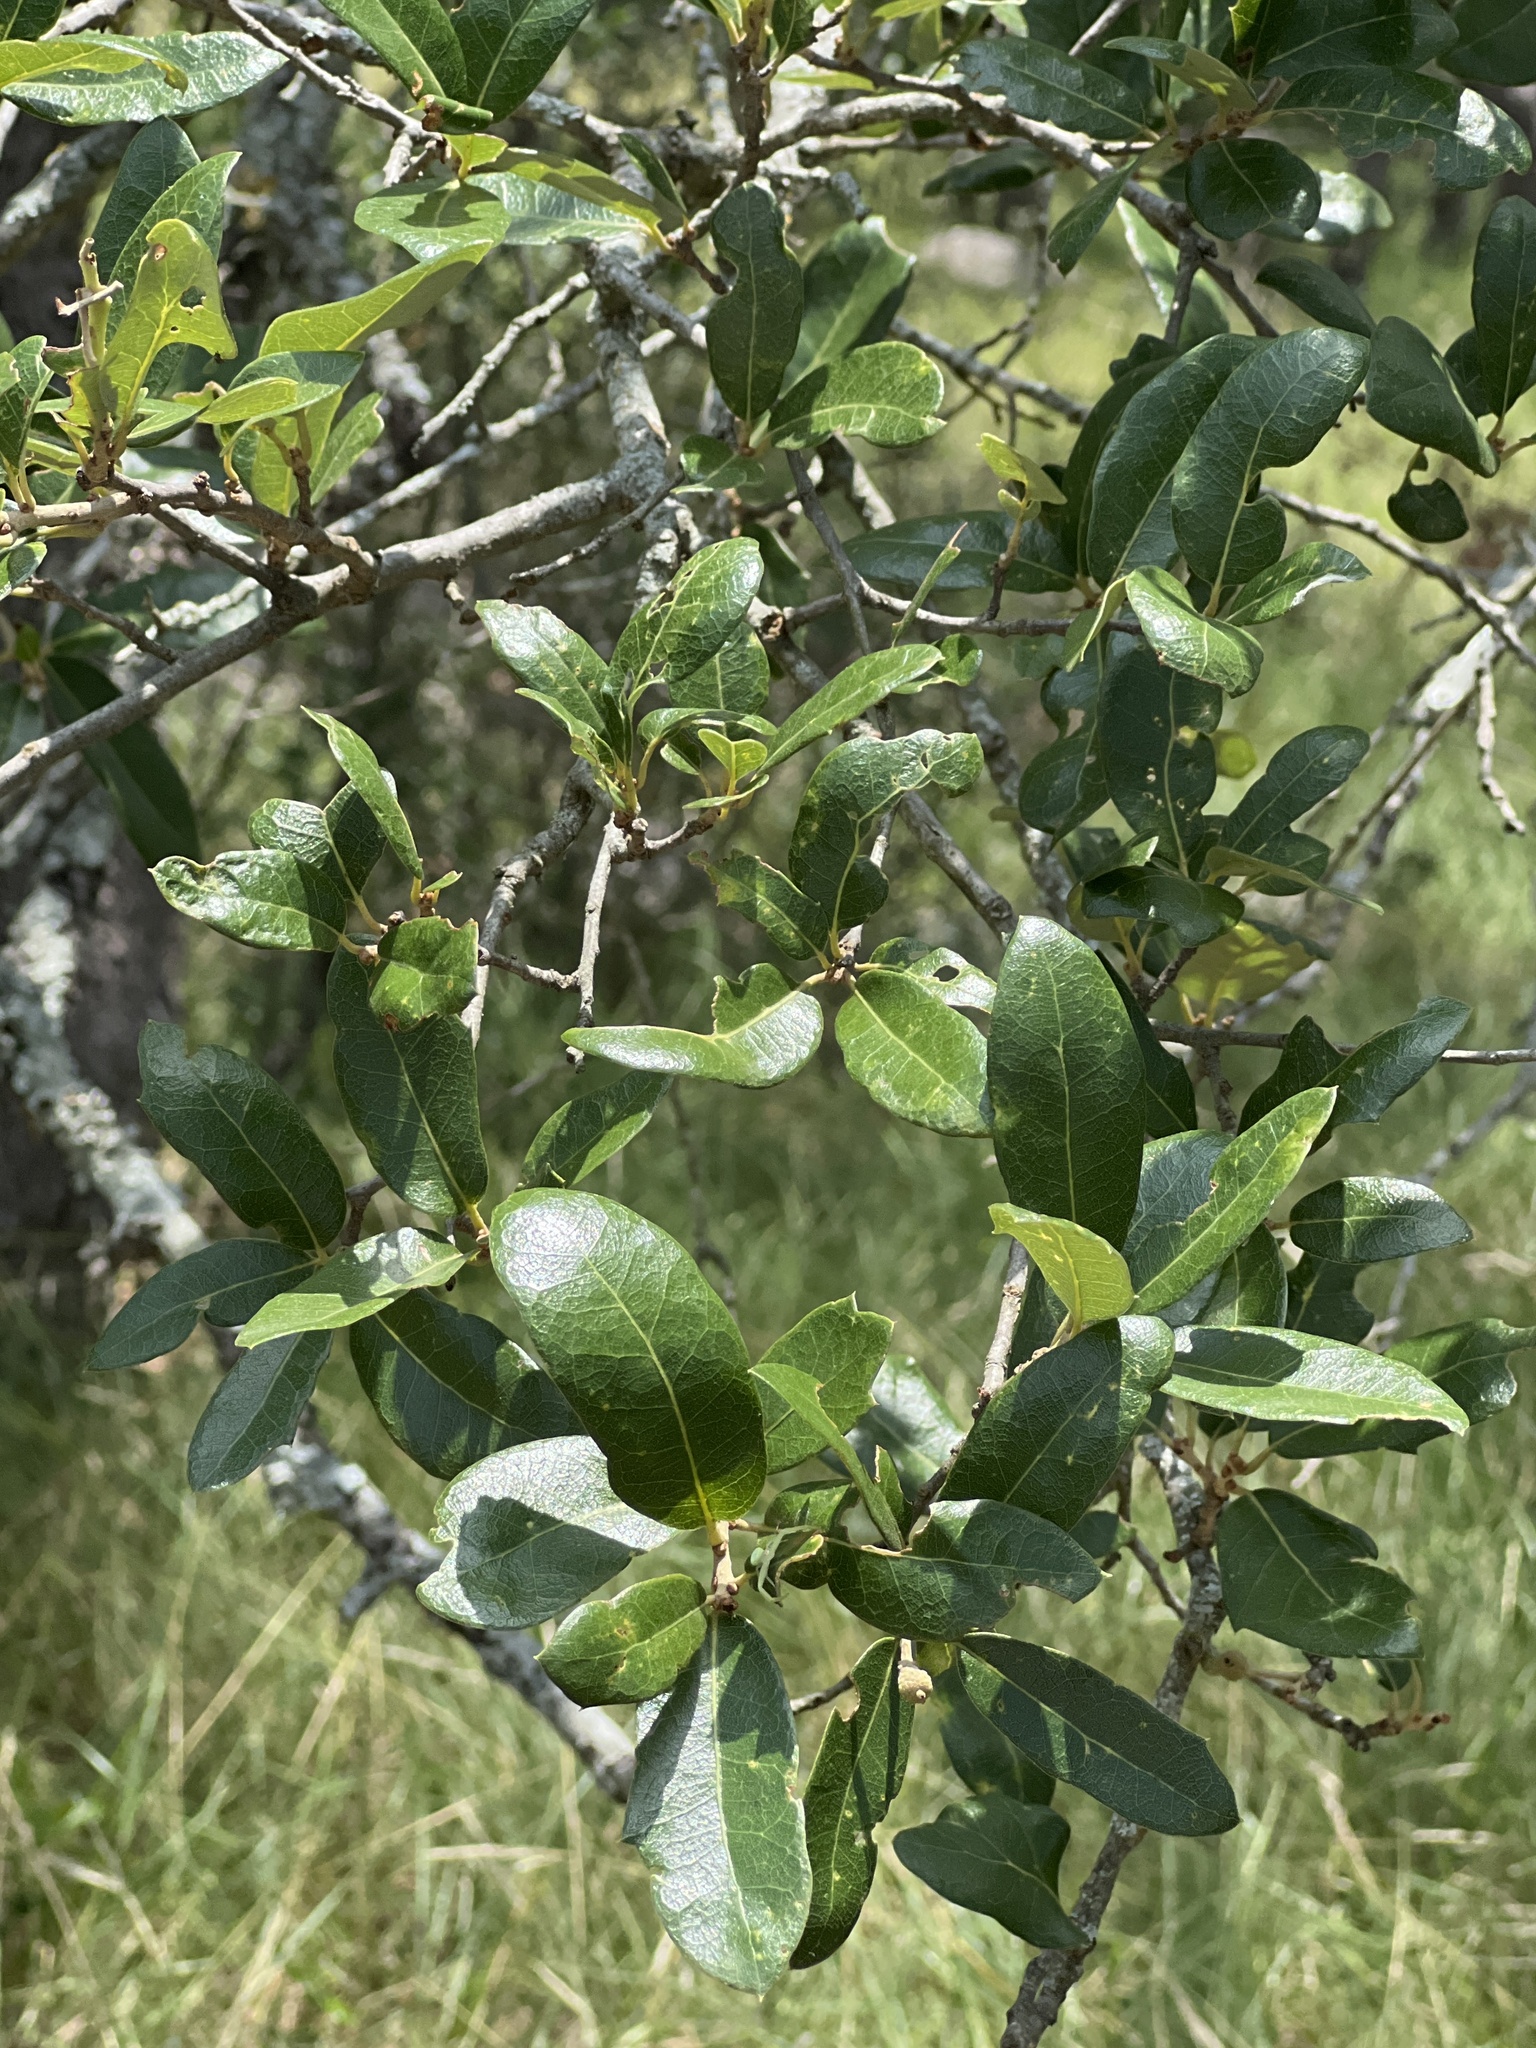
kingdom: Plantae
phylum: Tracheophyta
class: Magnoliopsida
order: Fagales
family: Fagaceae
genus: Quercus
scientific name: Quercus fusiformis
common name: Texas live oak
